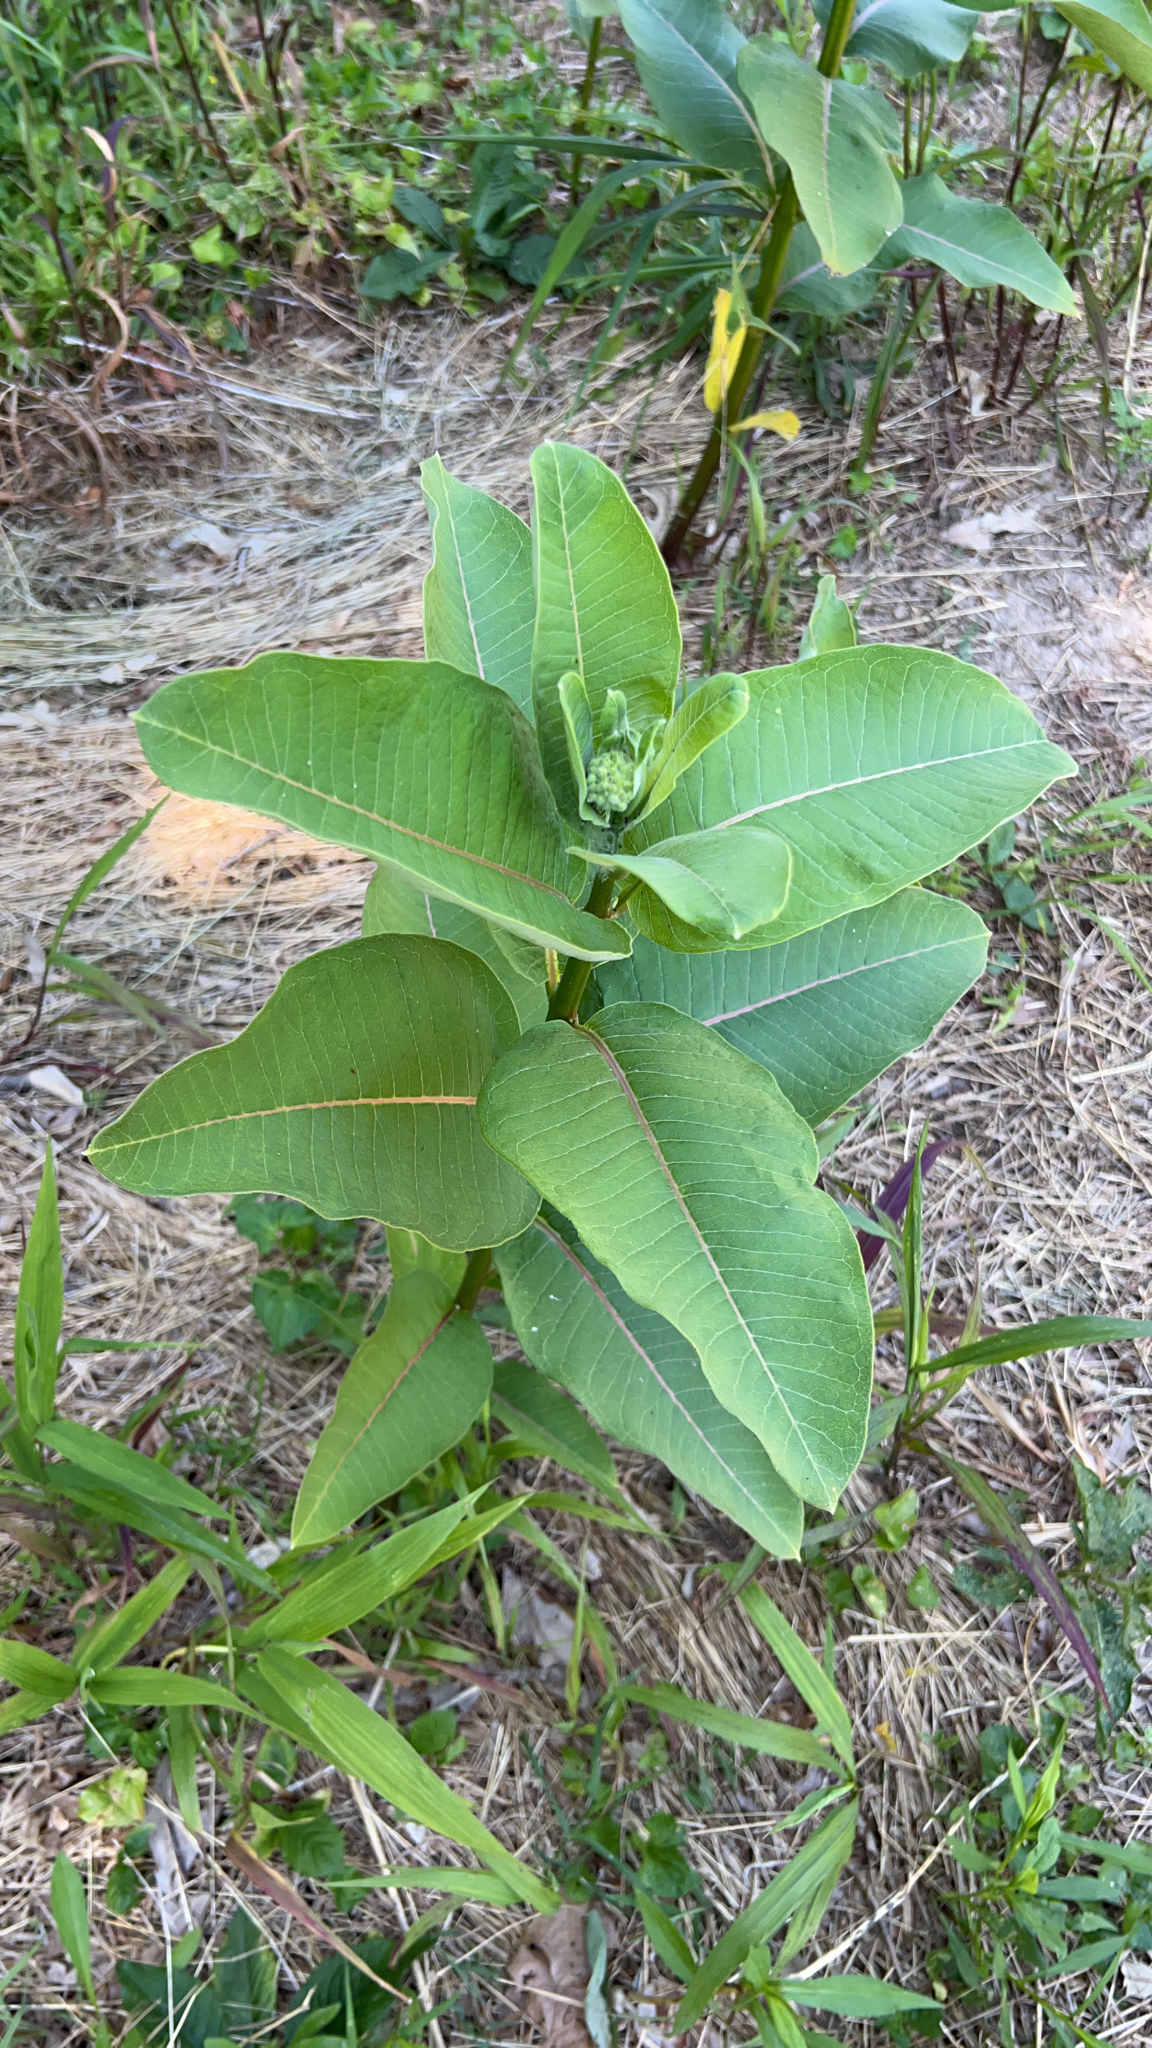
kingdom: Plantae
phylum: Tracheophyta
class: Magnoliopsida
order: Gentianales
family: Apocynaceae
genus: Asclepias
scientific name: Asclepias syriaca
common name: Common milkweed
